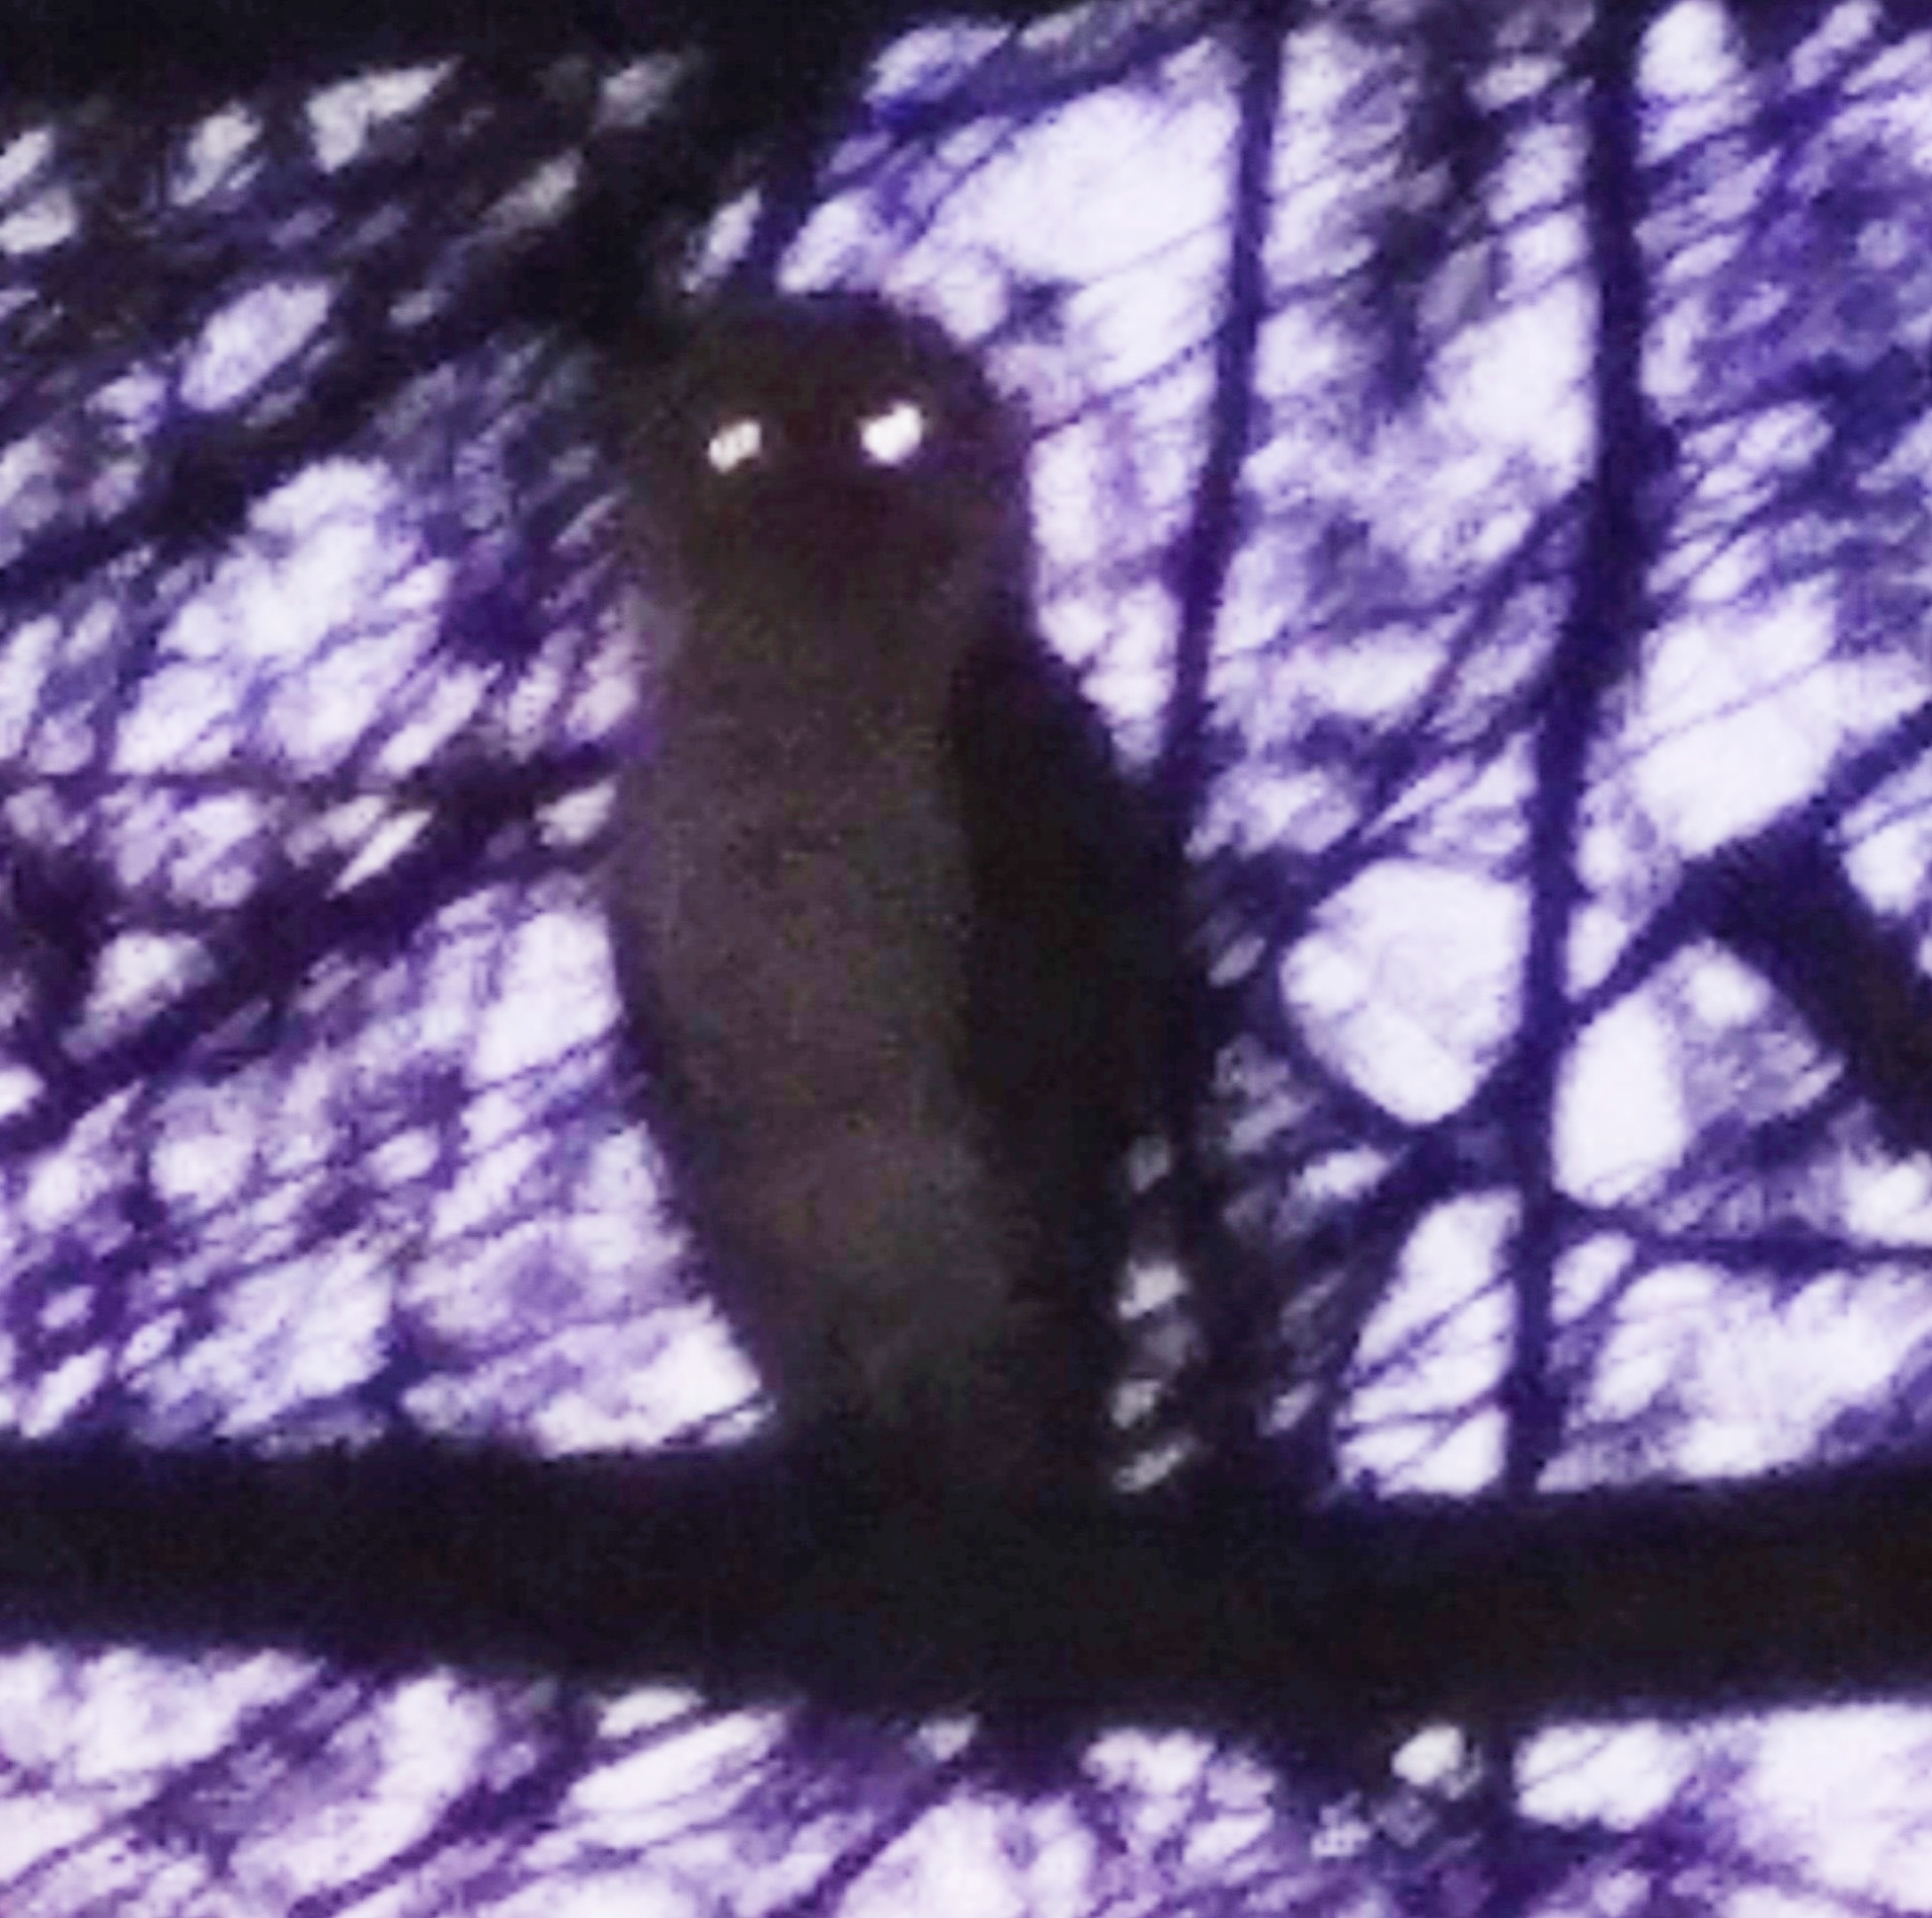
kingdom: Animalia
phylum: Chordata
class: Aves
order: Strigiformes
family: Tytonidae
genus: Tyto
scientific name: Tyto alba
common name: Barn owl
